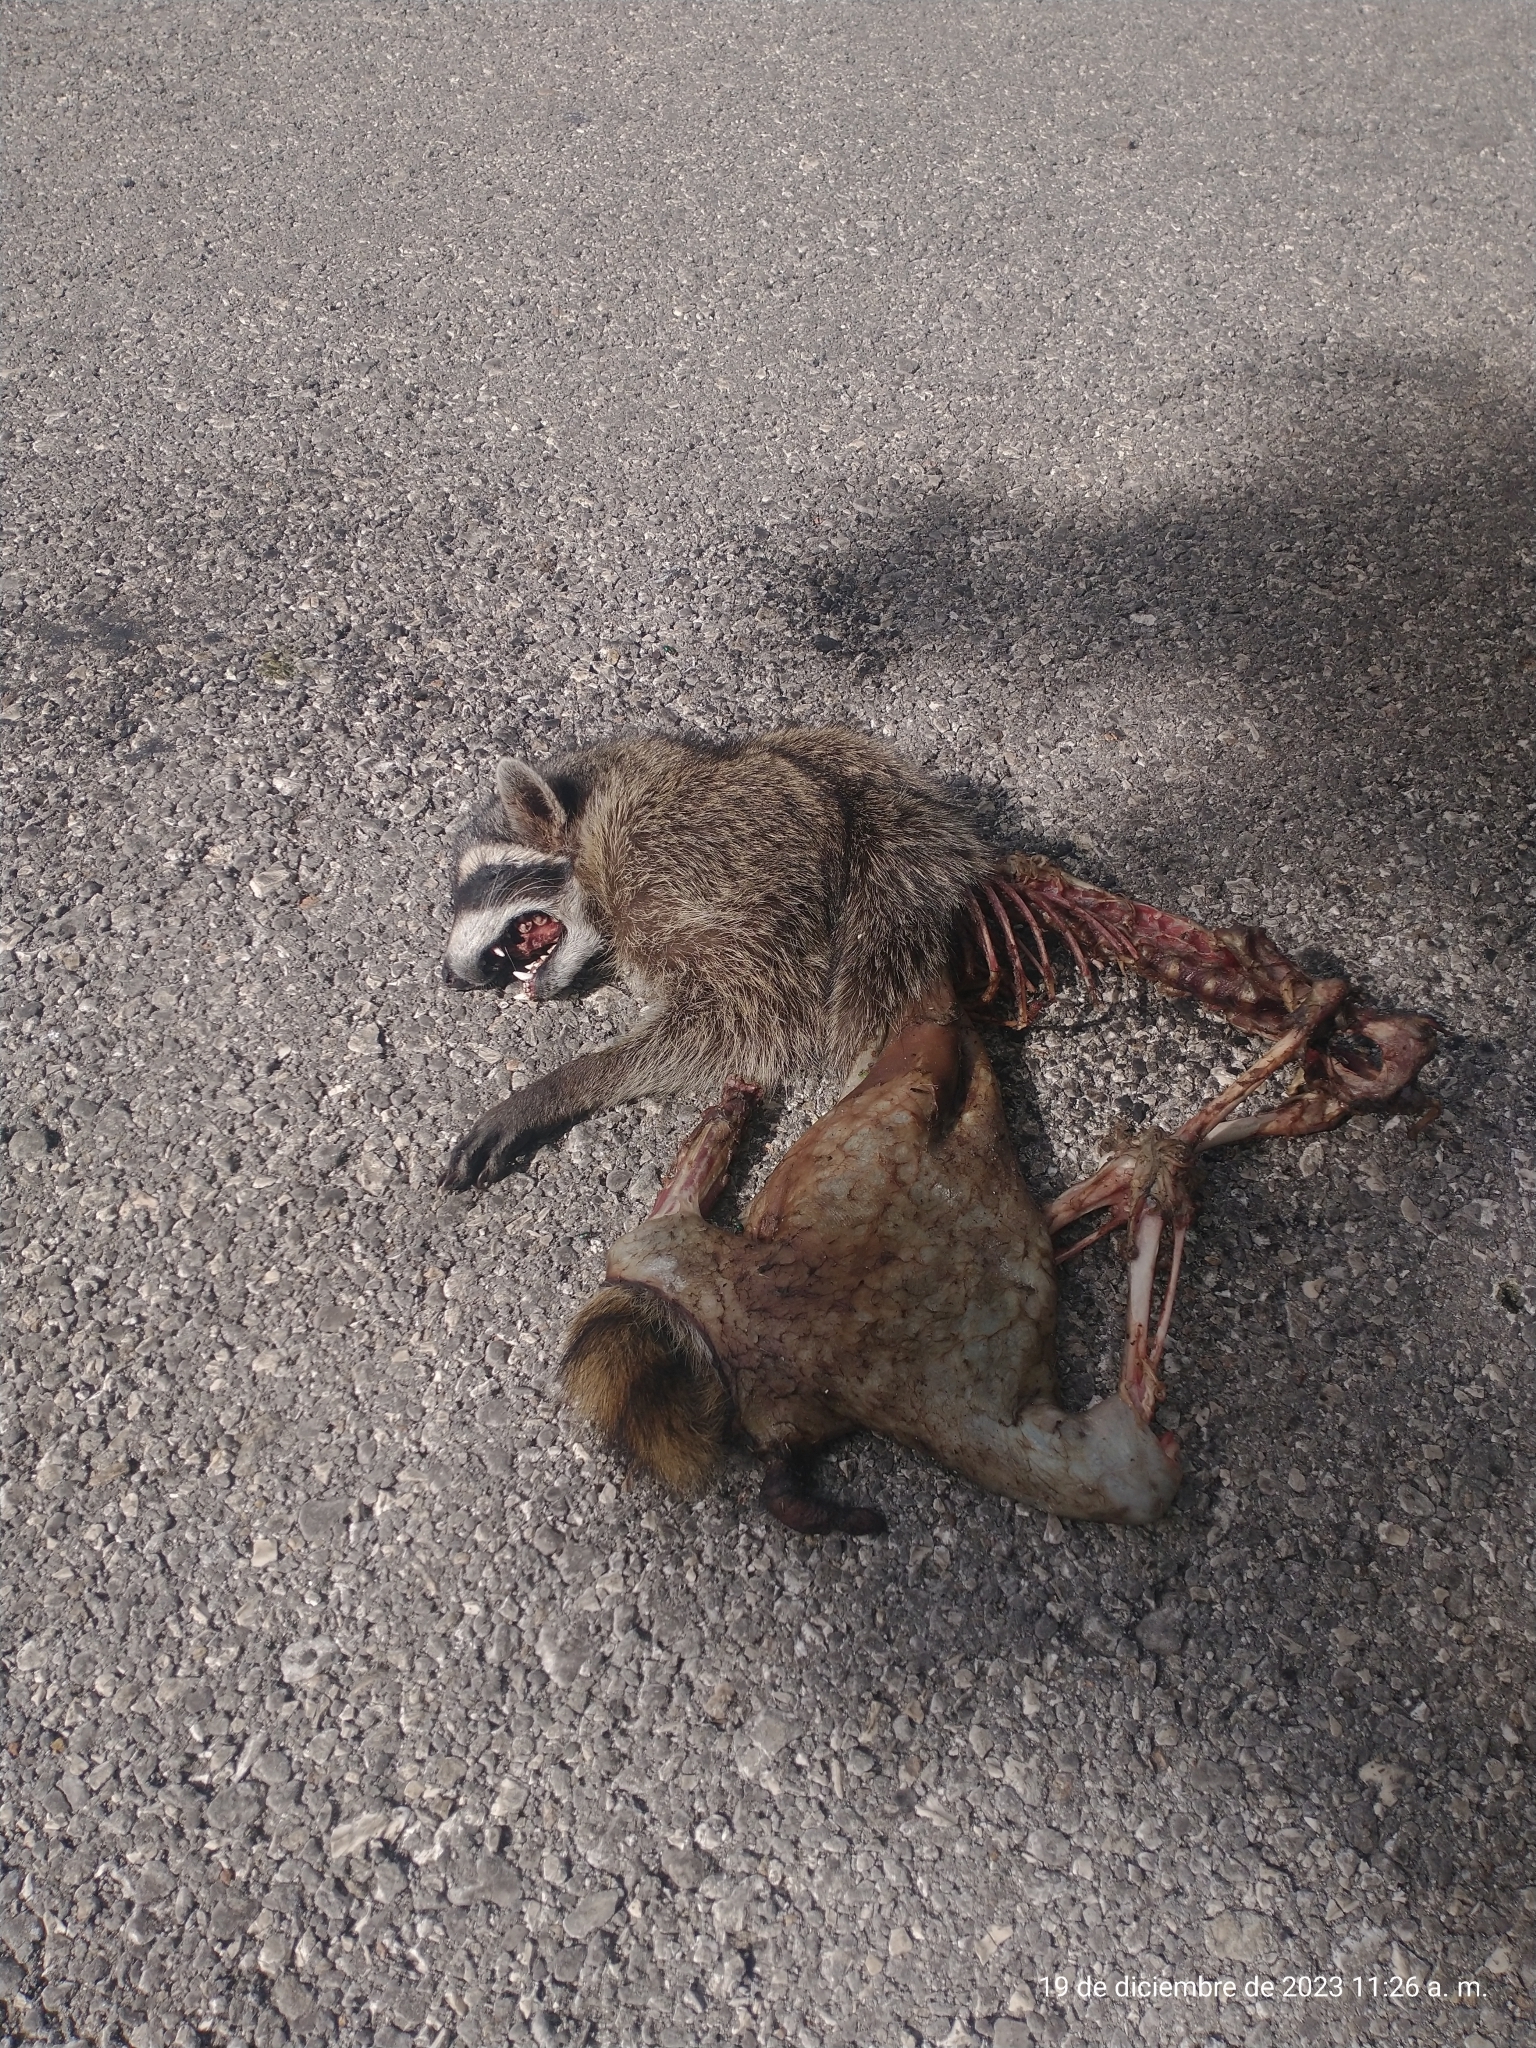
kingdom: Animalia
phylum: Chordata
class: Mammalia
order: Carnivora
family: Procyonidae
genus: Procyon
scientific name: Procyon lotor
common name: Raccoon
